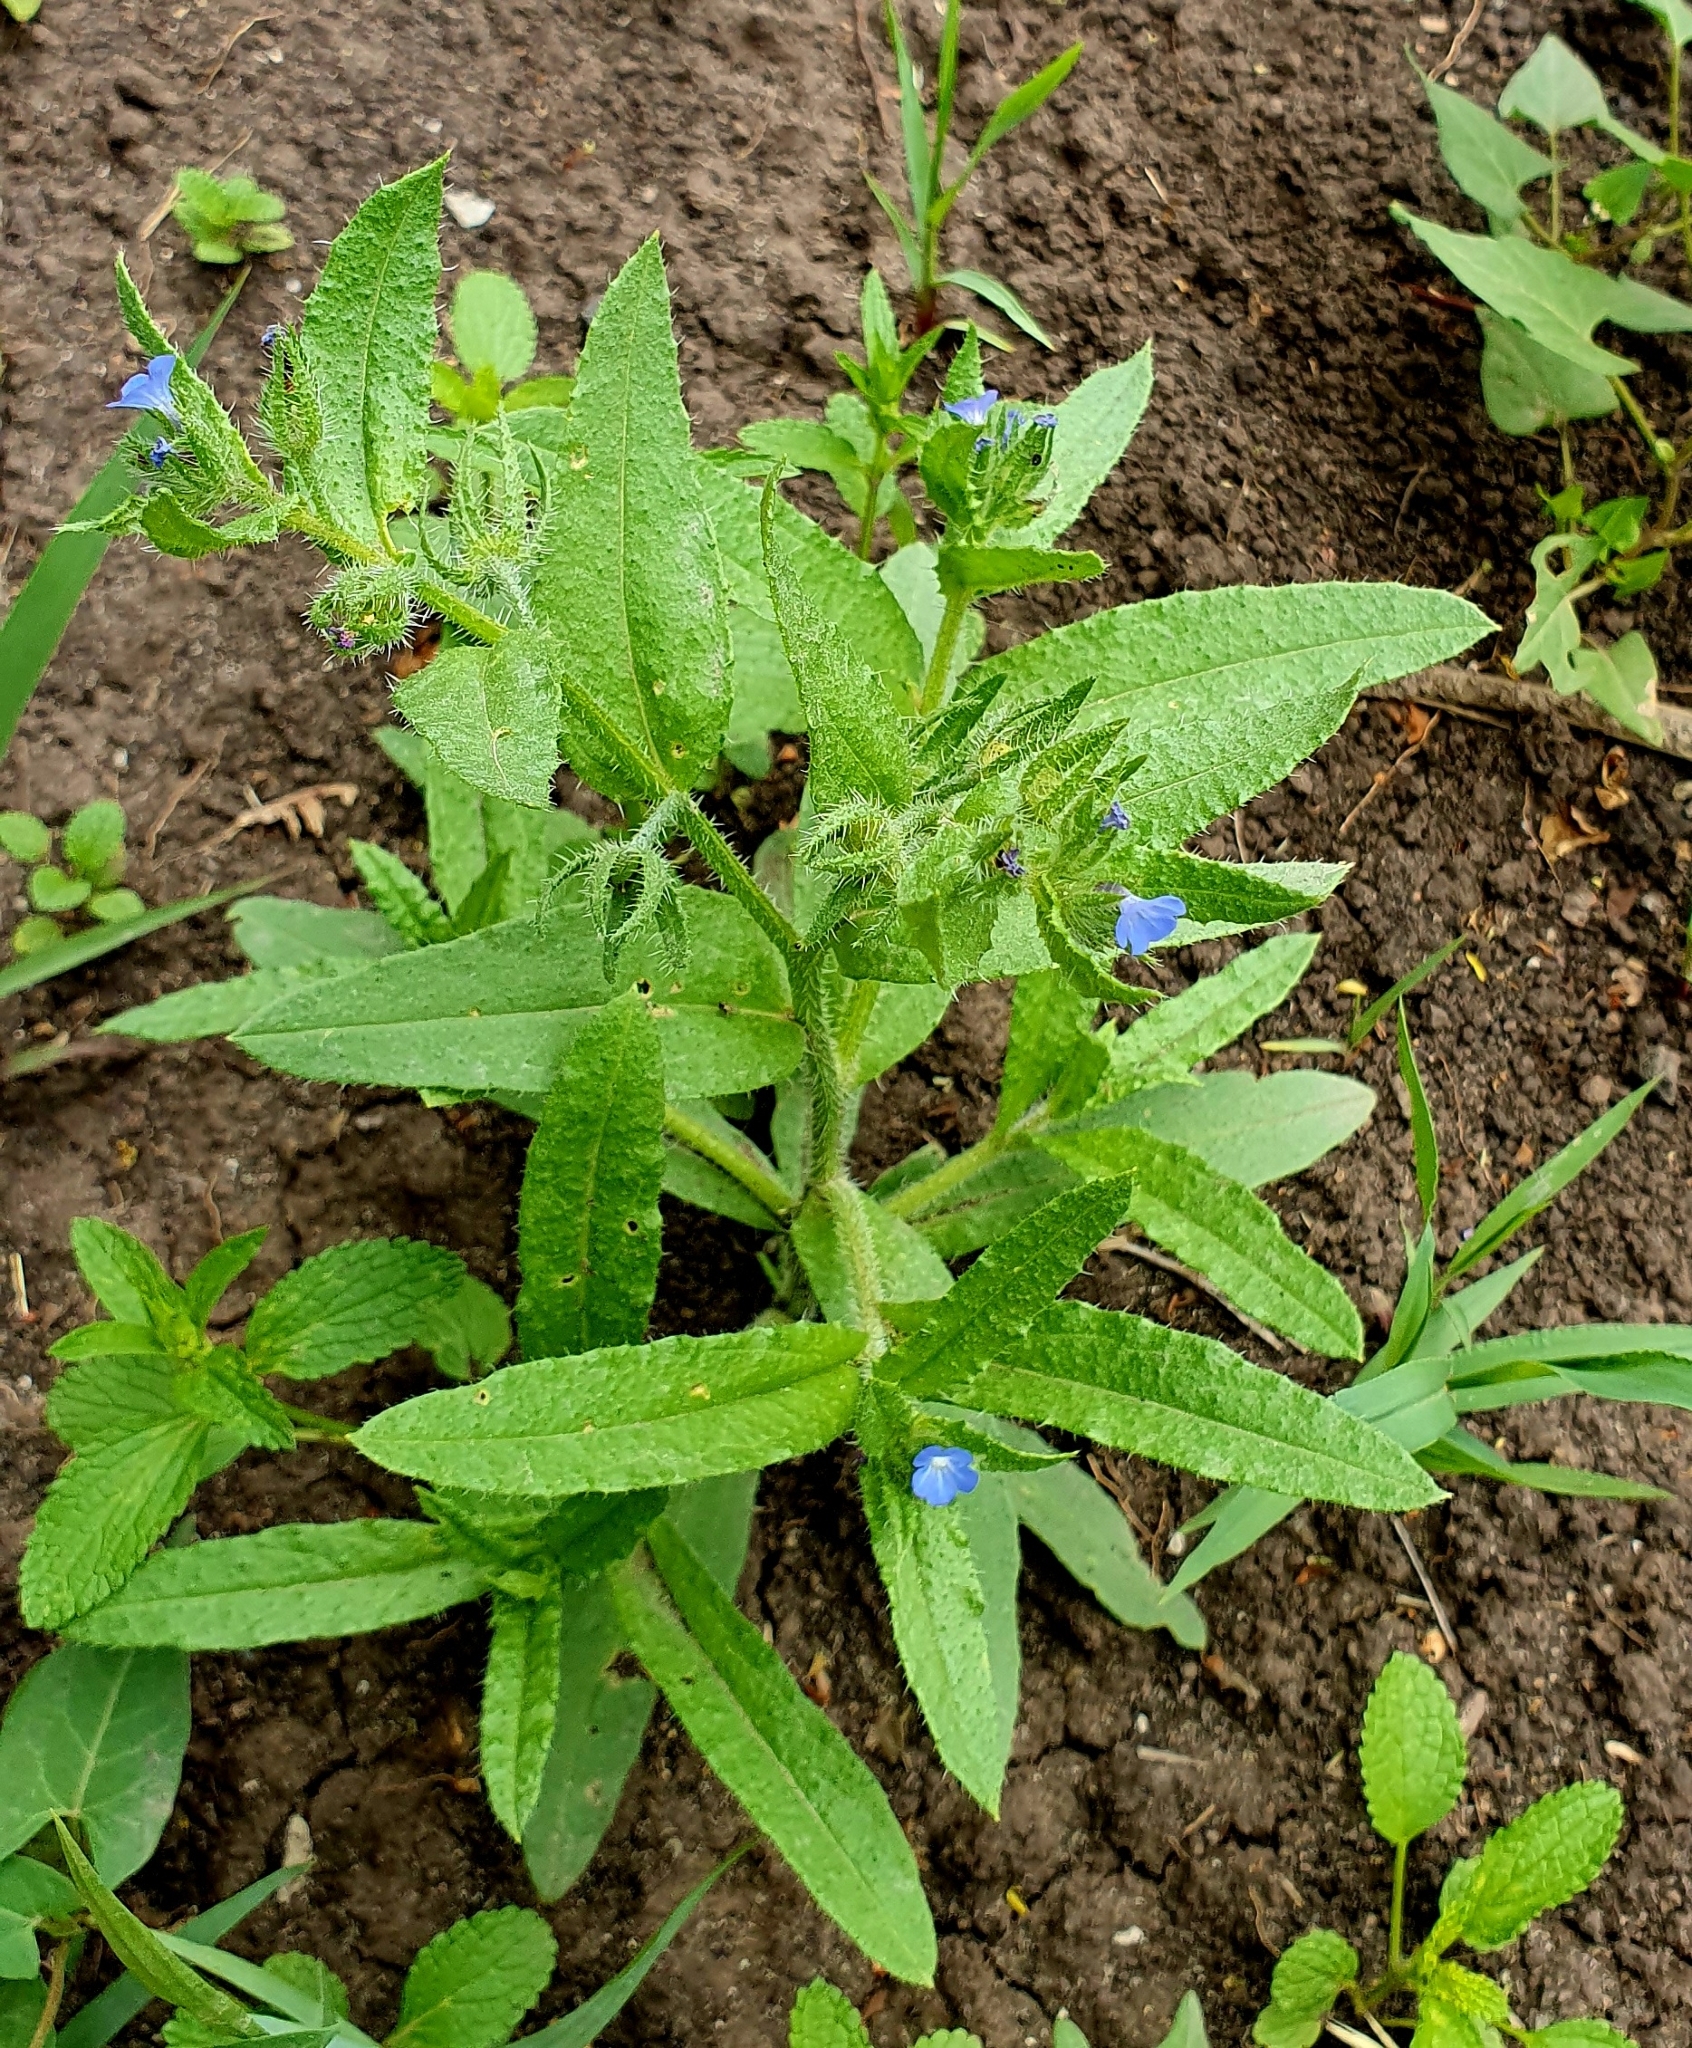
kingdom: Plantae
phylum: Tracheophyta
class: Magnoliopsida
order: Boraginales
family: Boraginaceae
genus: Lycopsis
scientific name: Lycopsis arvensis
